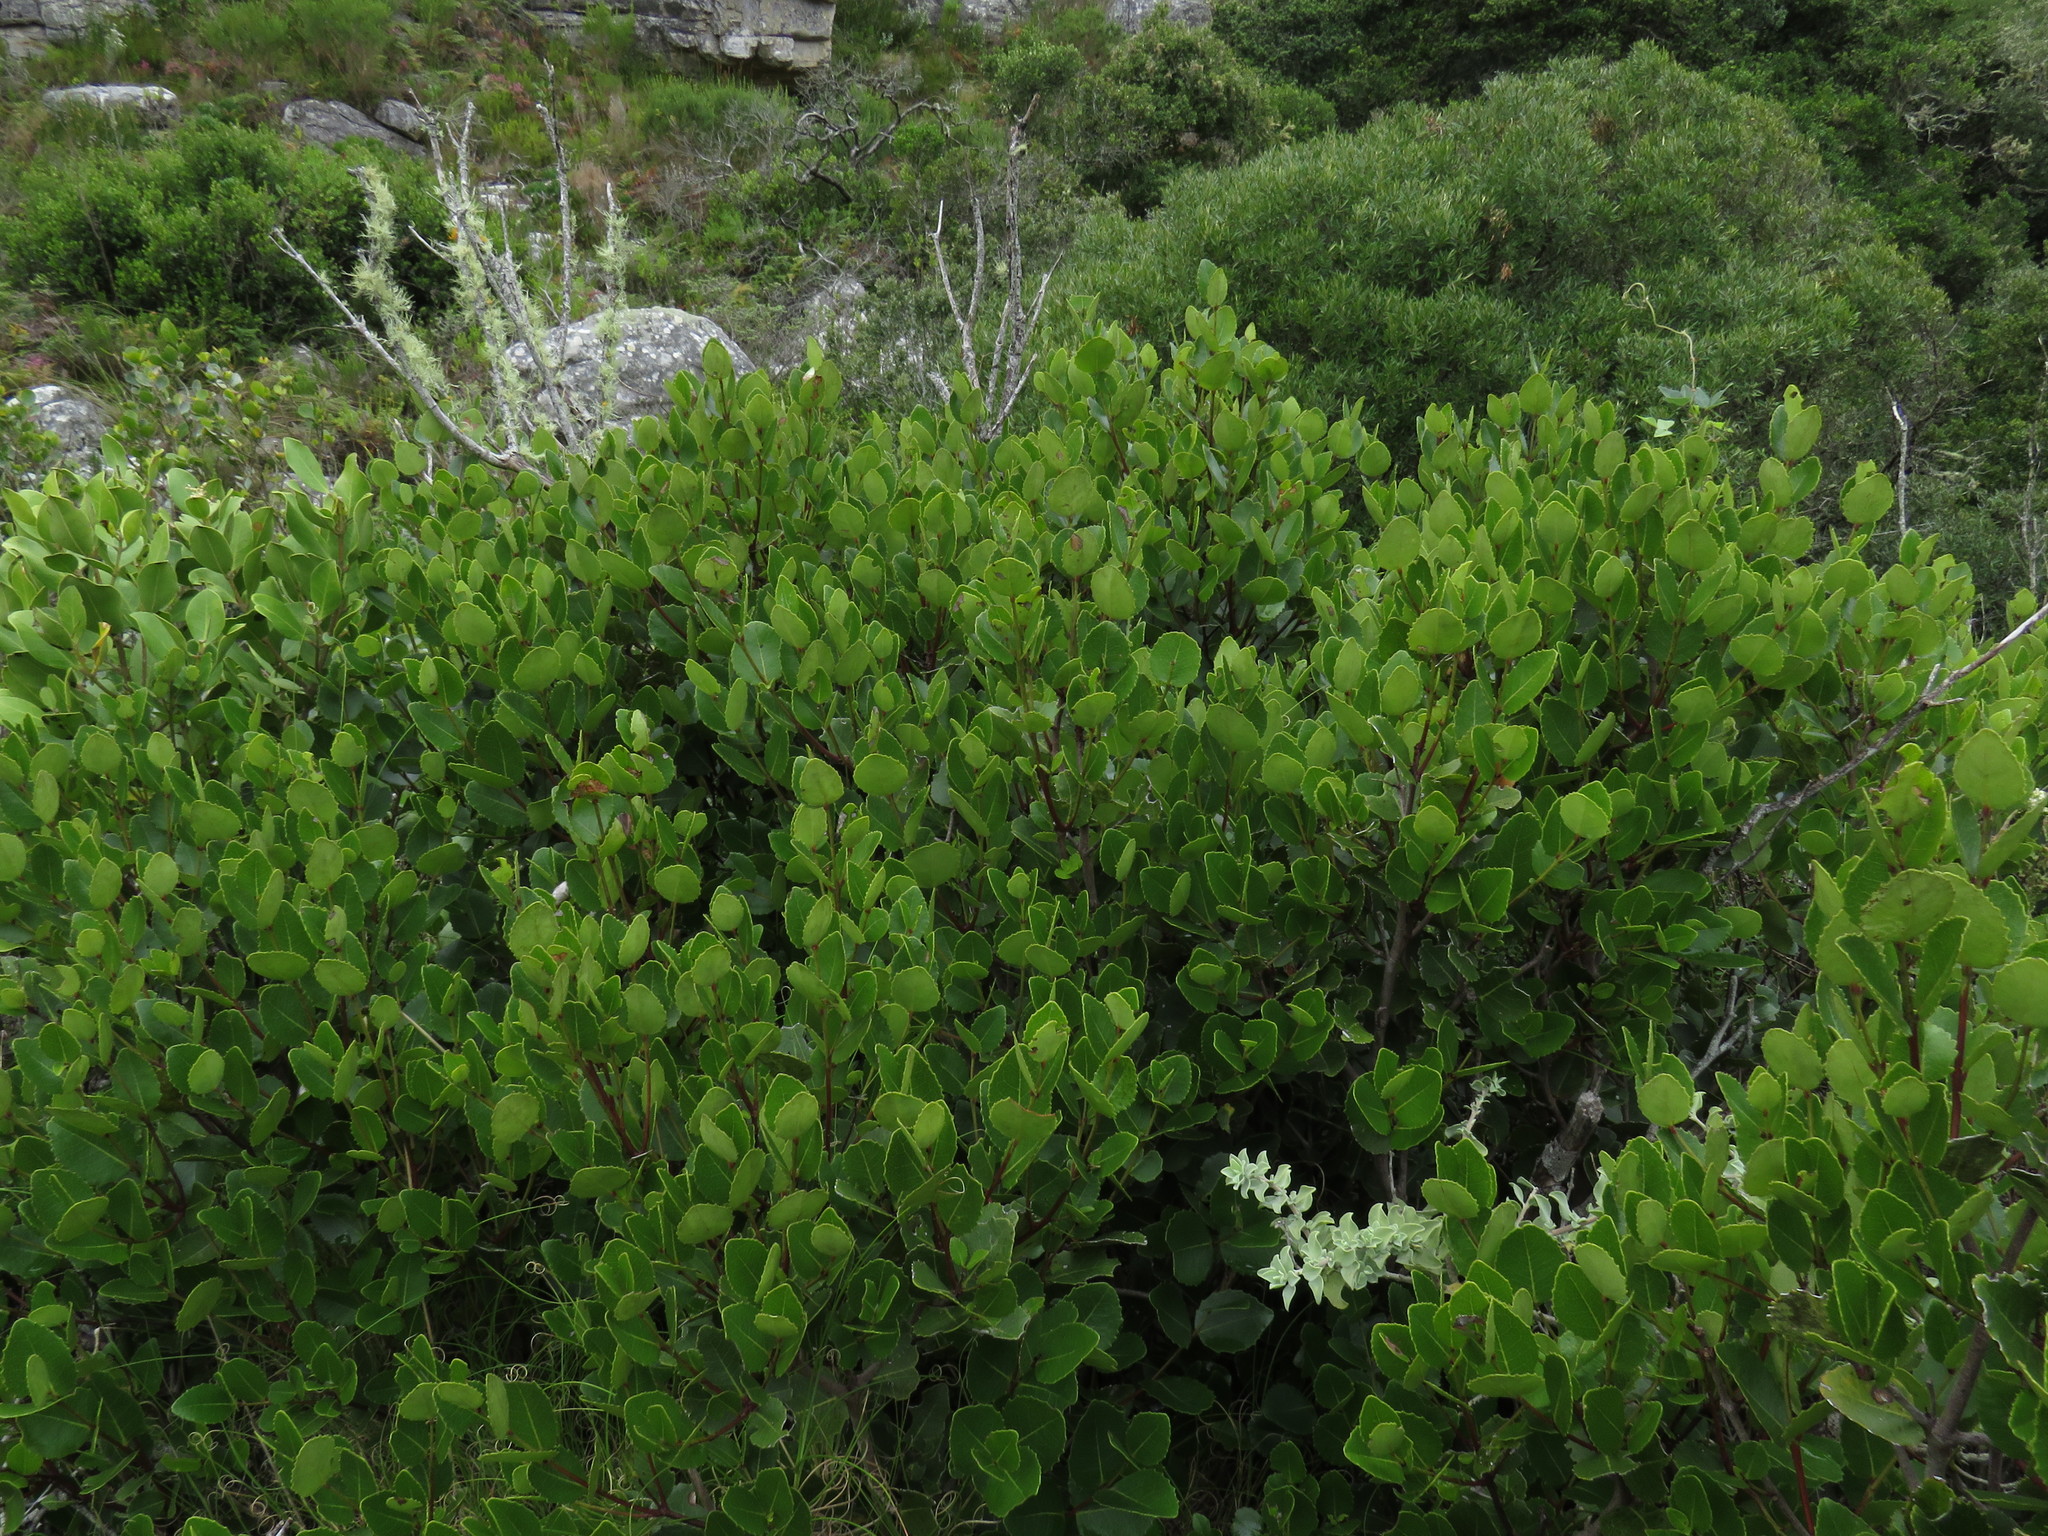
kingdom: Plantae
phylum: Tracheophyta
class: Magnoliopsida
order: Fabales
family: Fabaceae
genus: Dipogon
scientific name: Dipogon lignosus
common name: Okie bean
